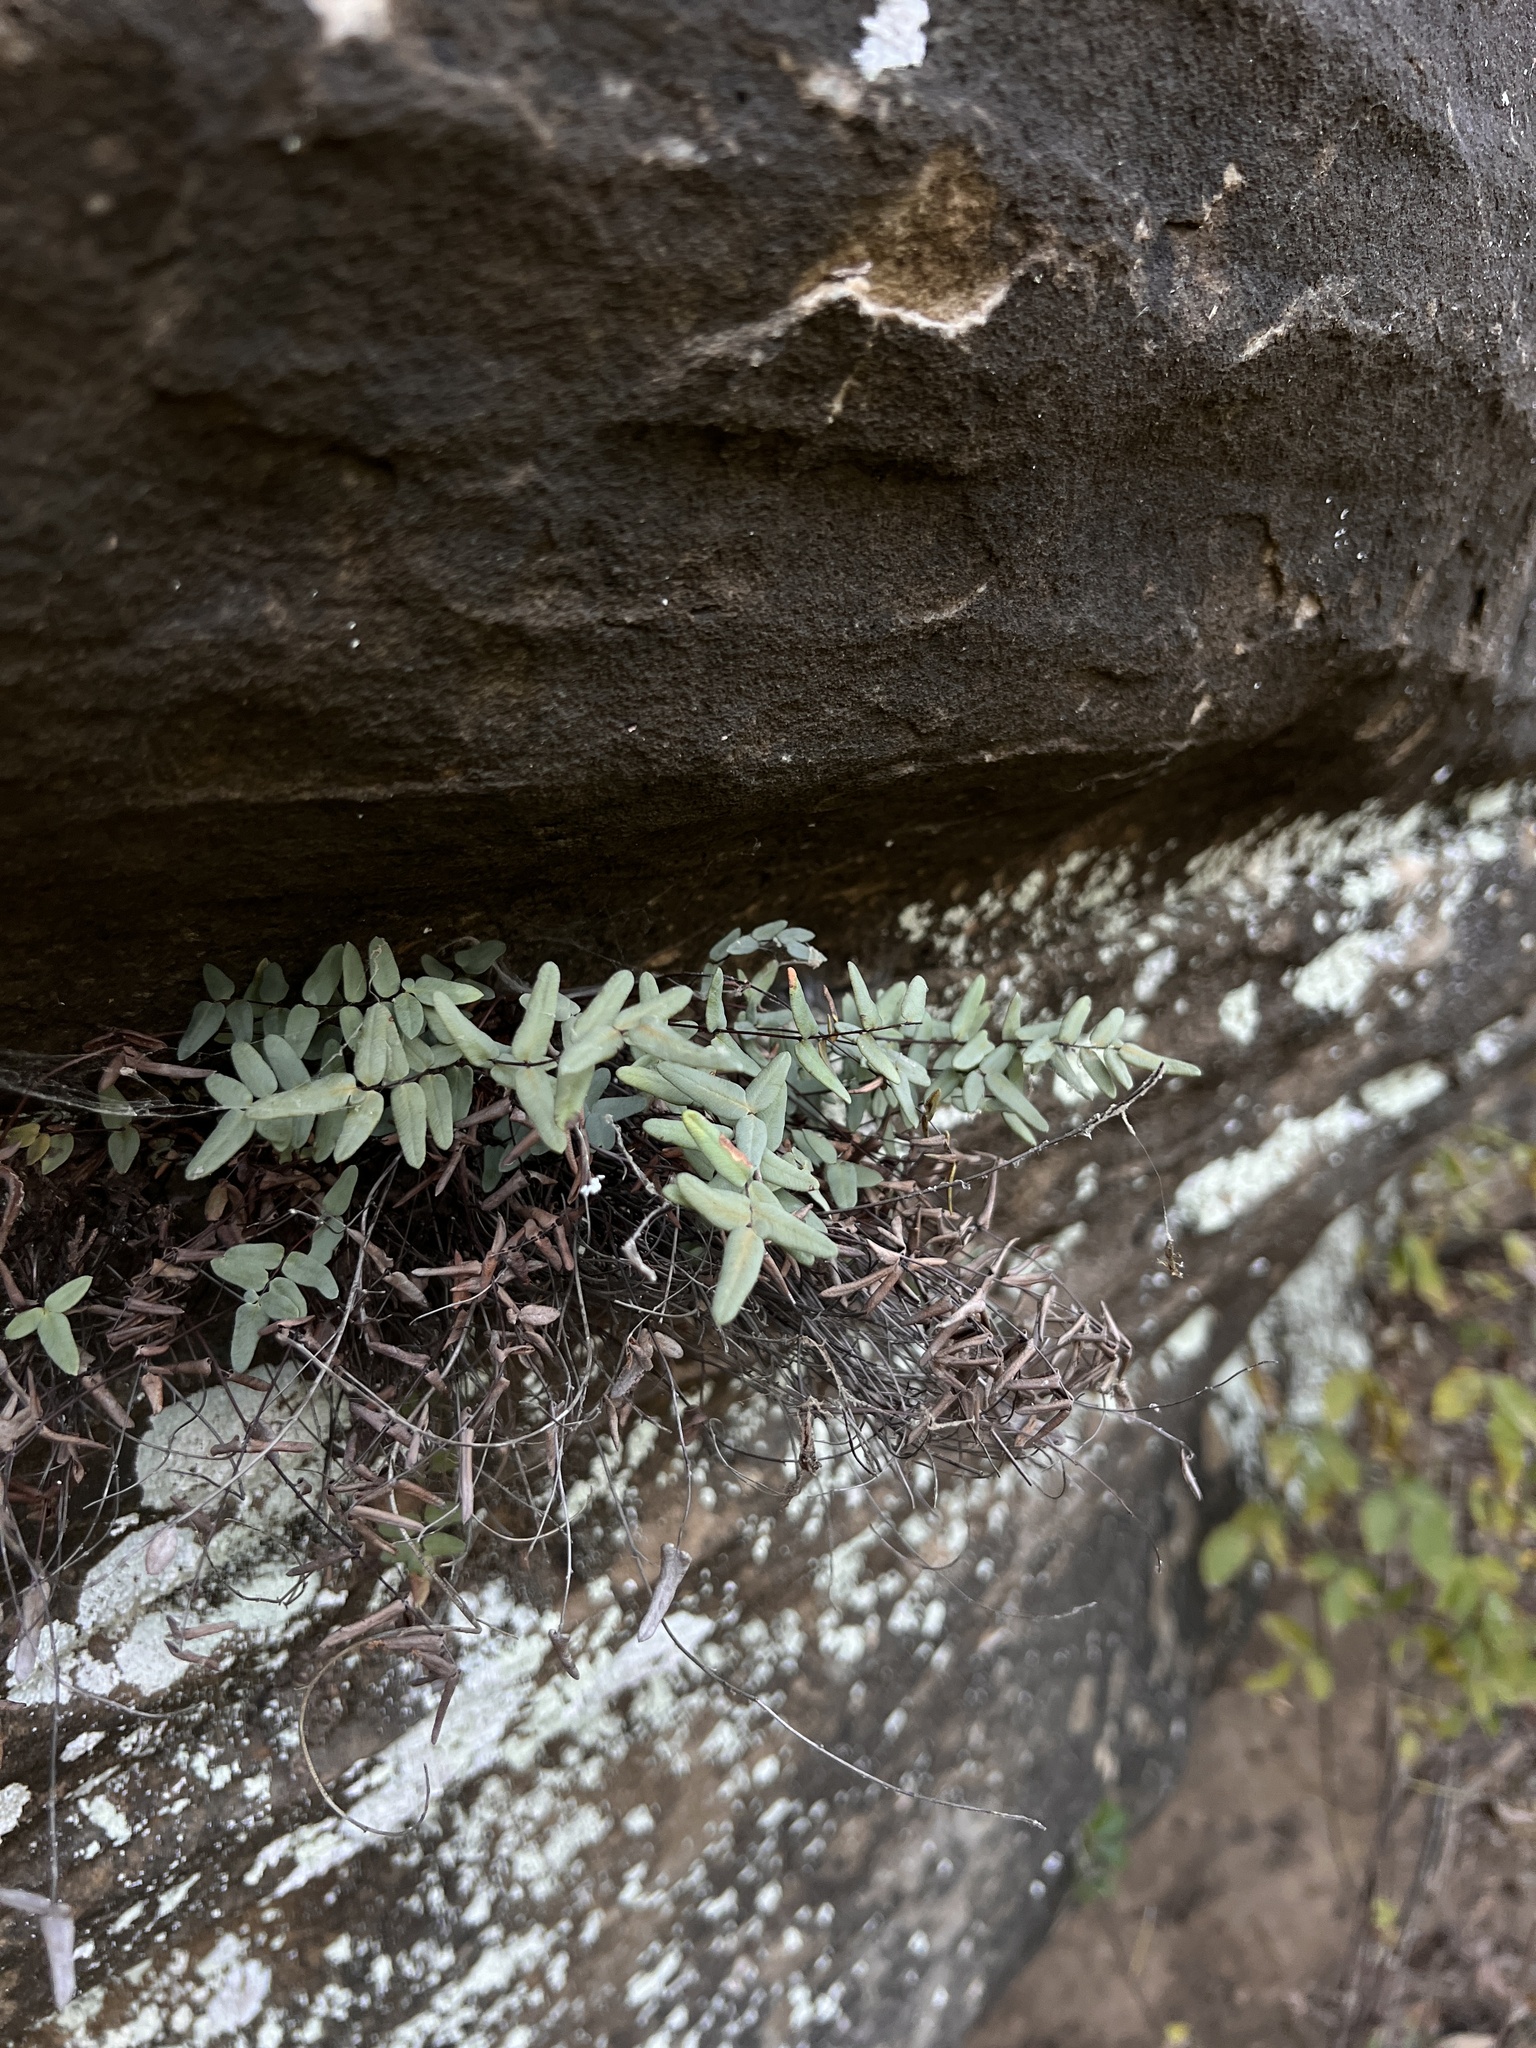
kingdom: Plantae
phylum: Tracheophyta
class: Polypodiopsida
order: Polypodiales
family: Pteridaceae
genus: Pellaea
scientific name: Pellaea glabella
